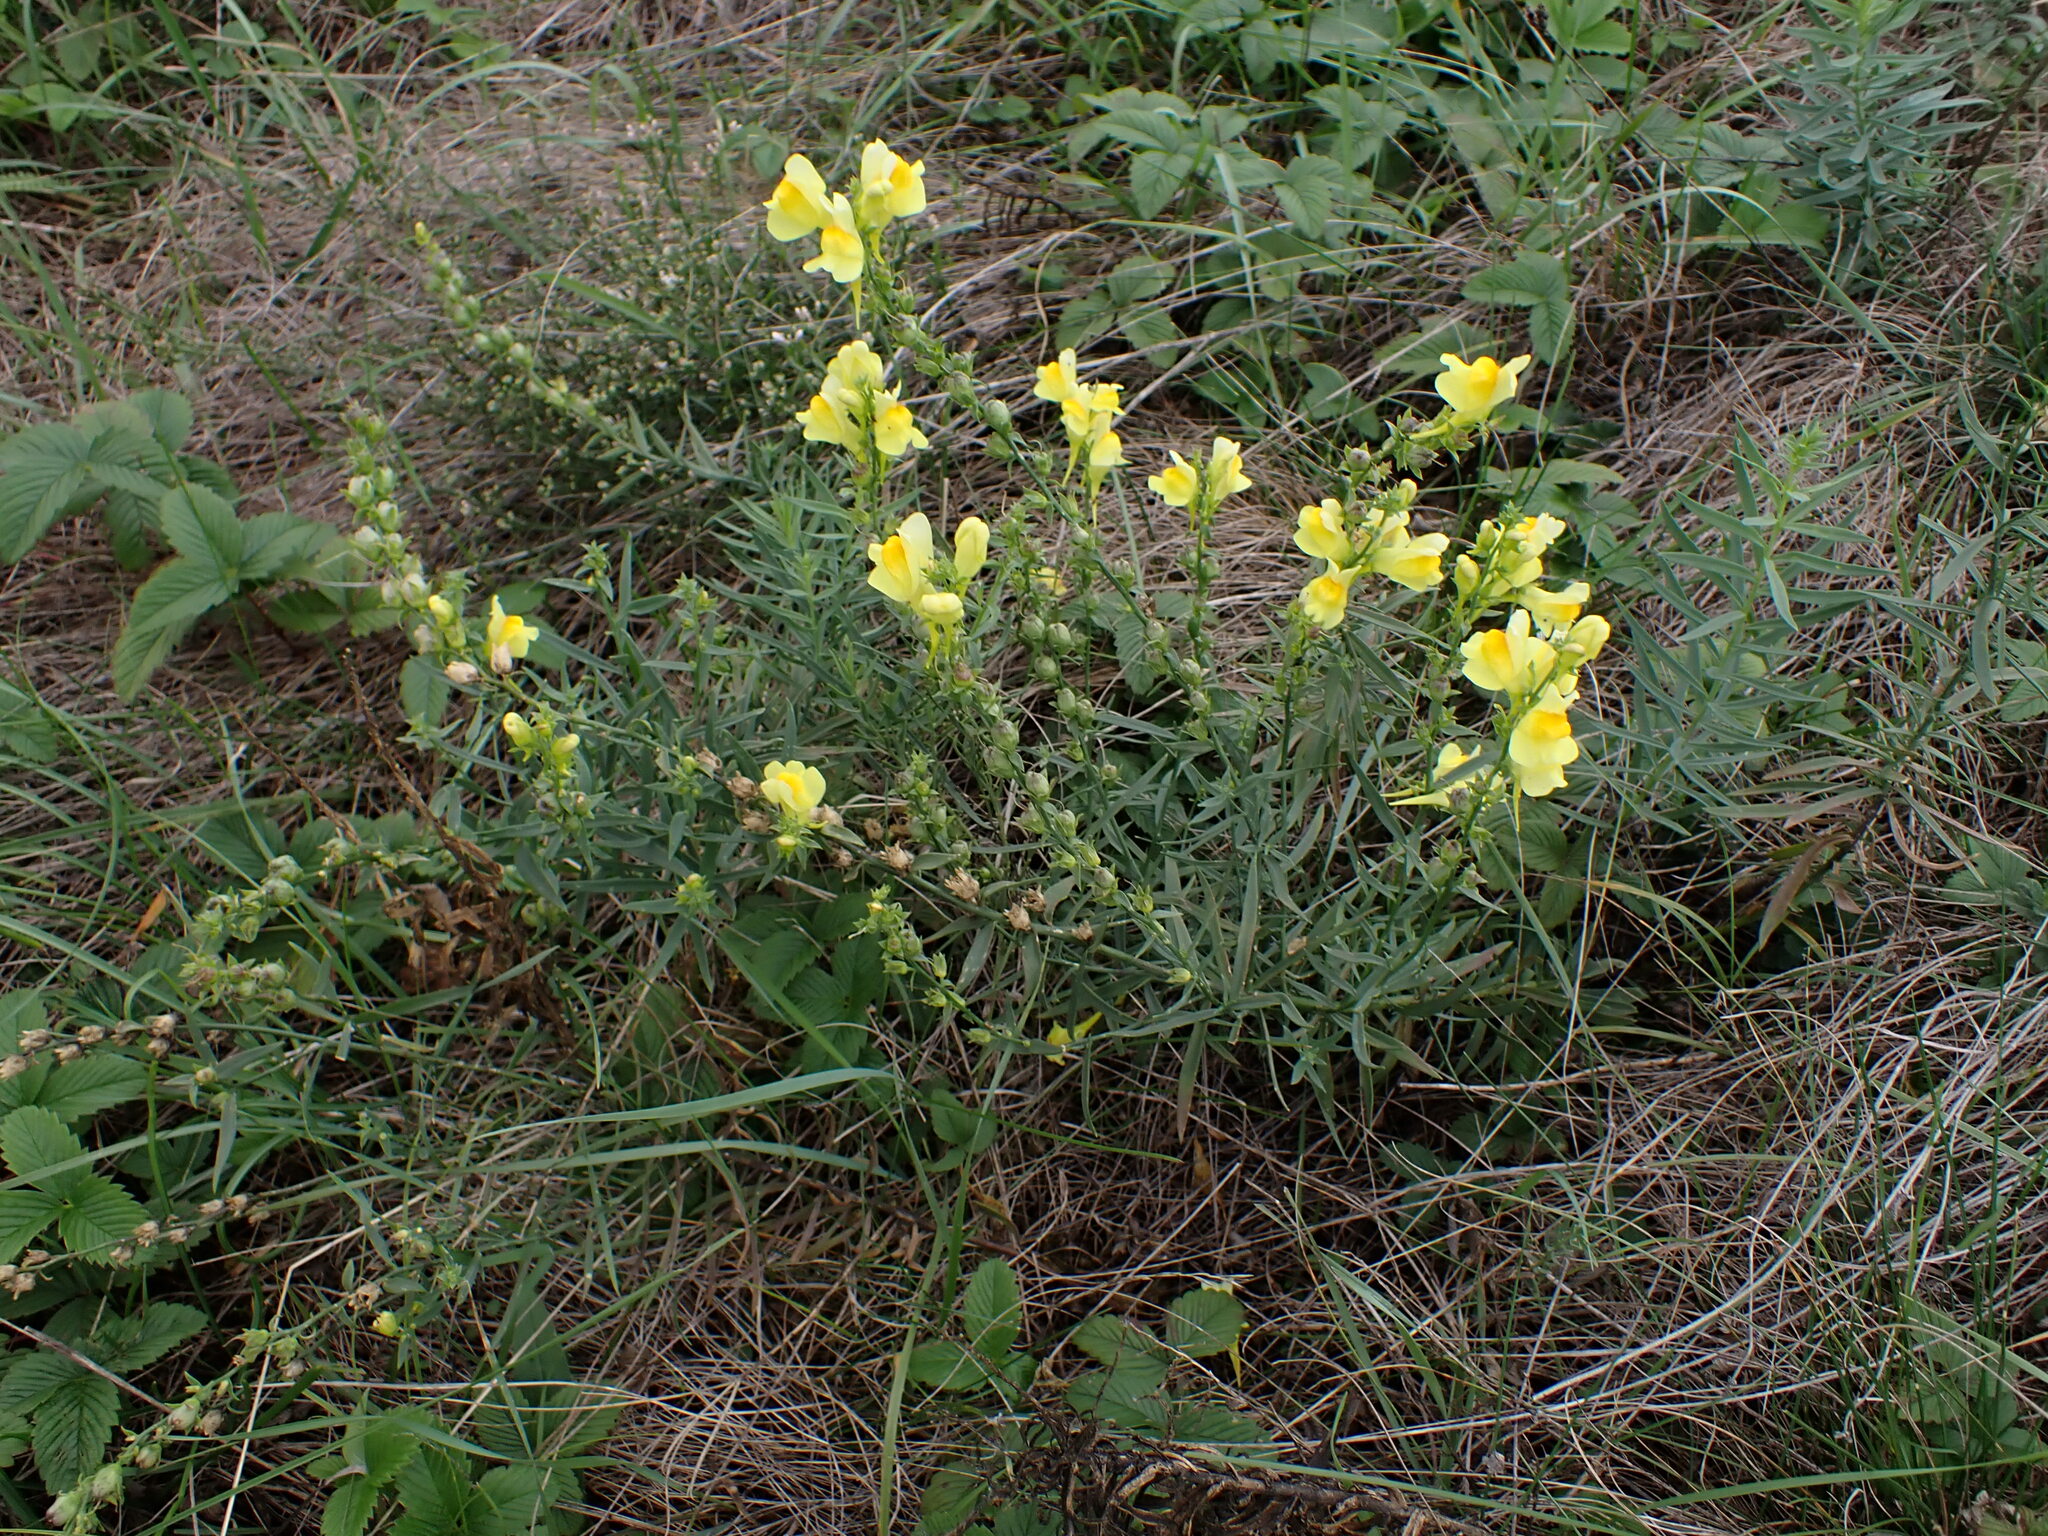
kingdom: Plantae
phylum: Tracheophyta
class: Magnoliopsida
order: Lamiales
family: Plantaginaceae
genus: Linaria
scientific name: Linaria vulgaris
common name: Butter and eggs
